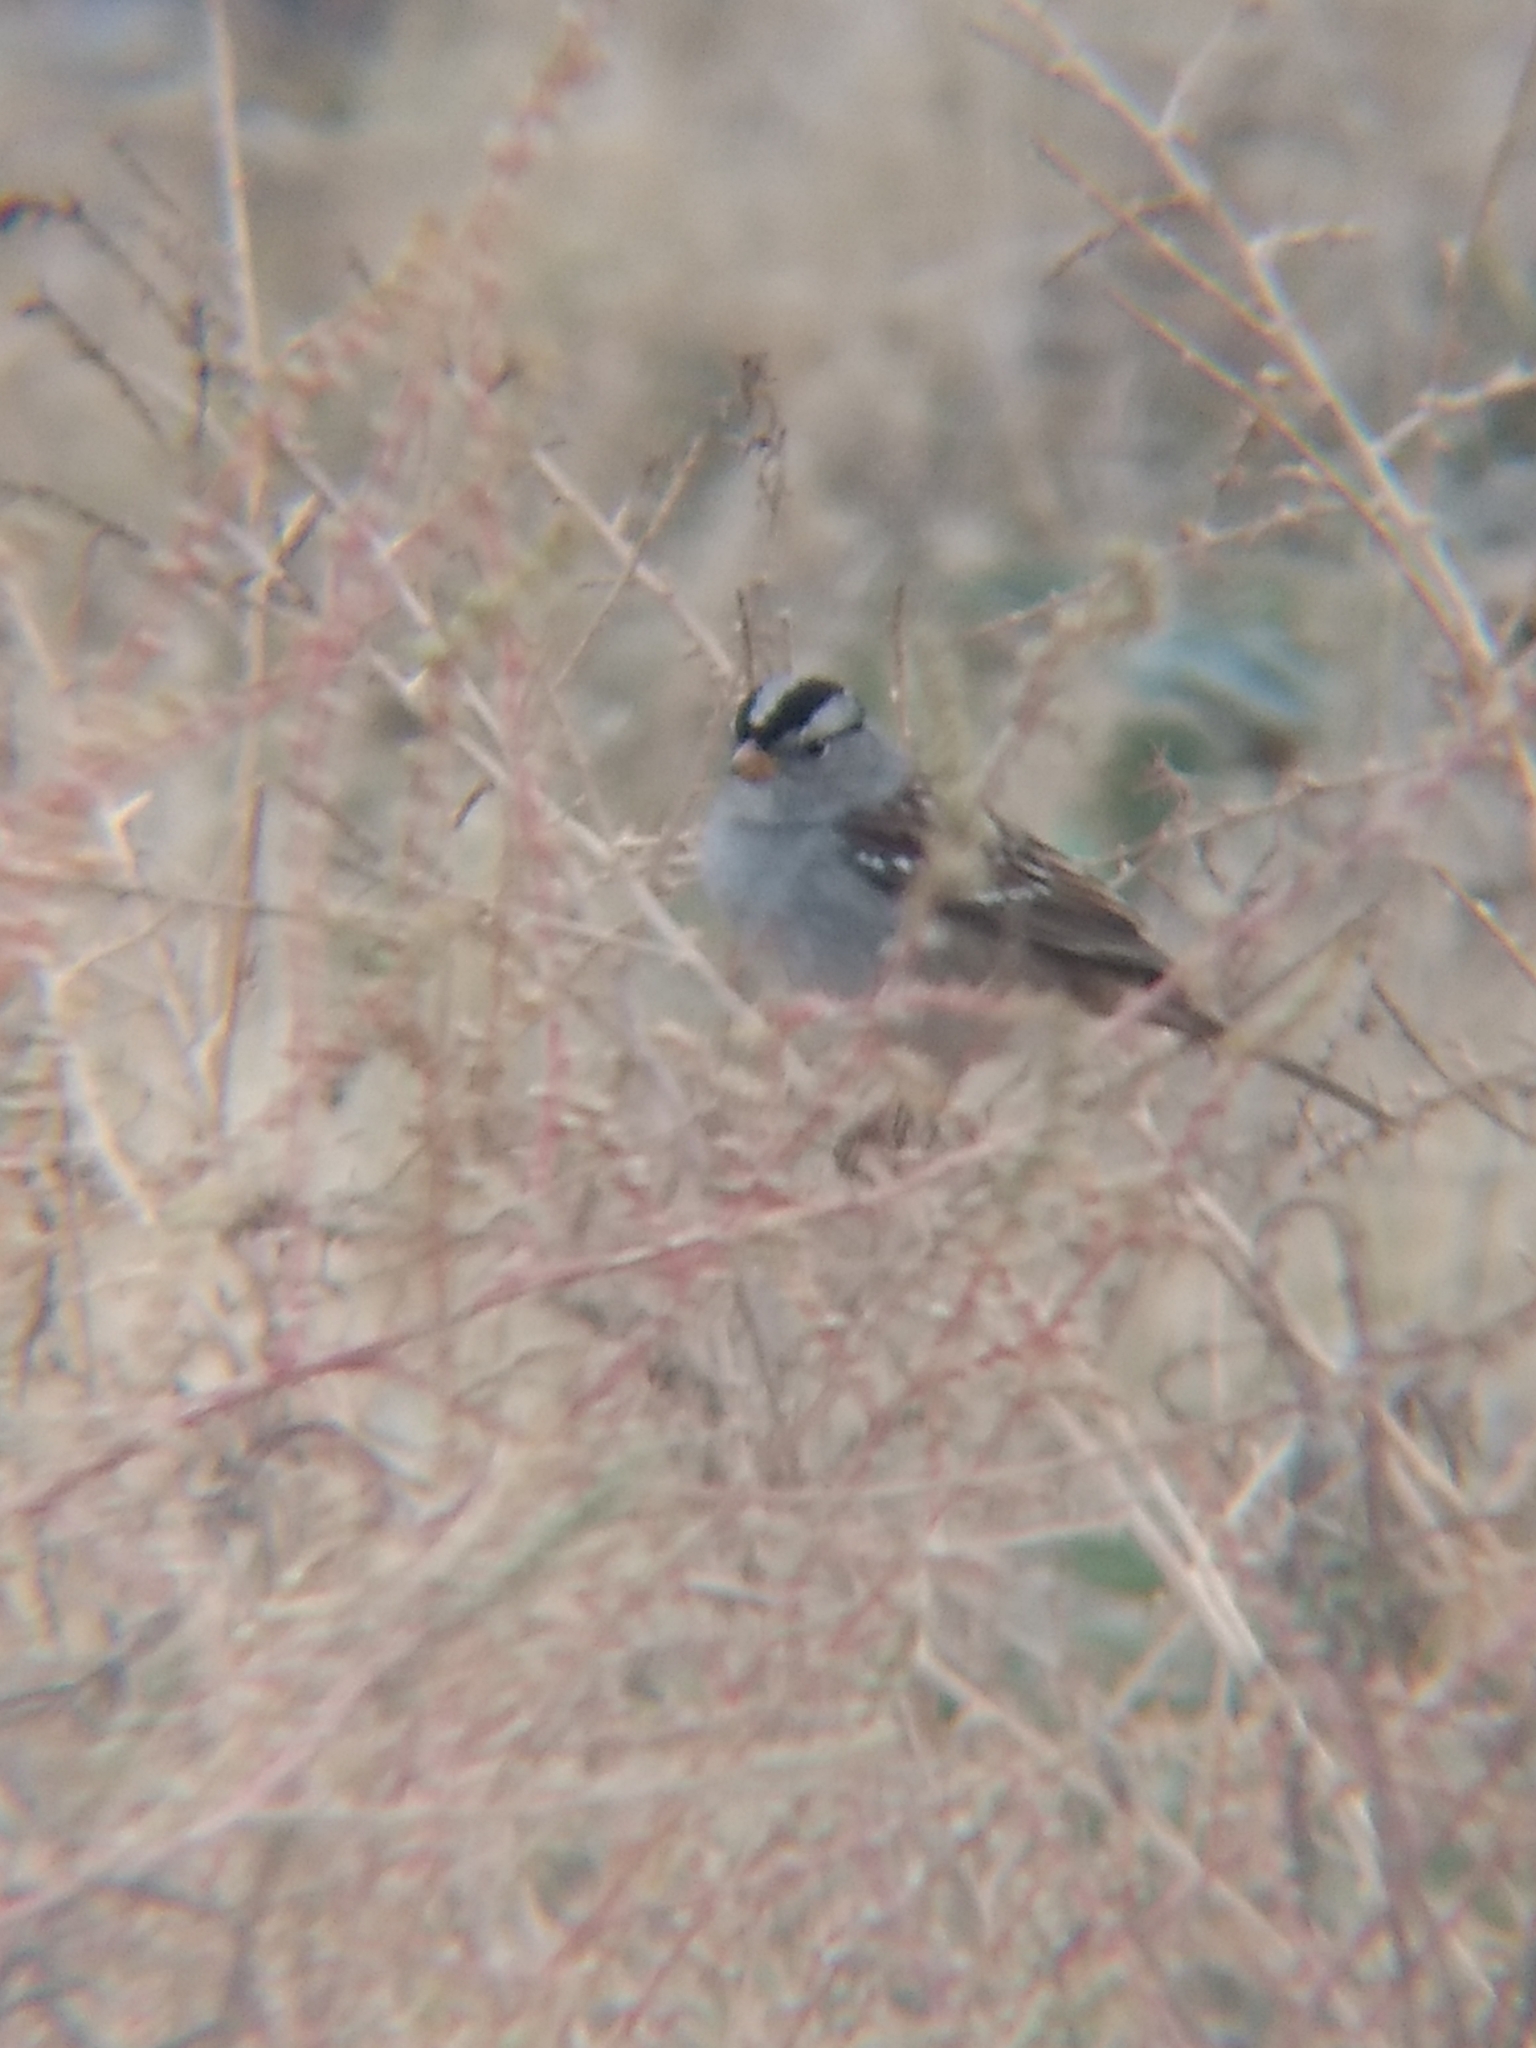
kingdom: Animalia
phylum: Chordata
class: Aves
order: Passeriformes
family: Passerellidae
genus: Zonotrichia
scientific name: Zonotrichia leucophrys
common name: White-crowned sparrow
